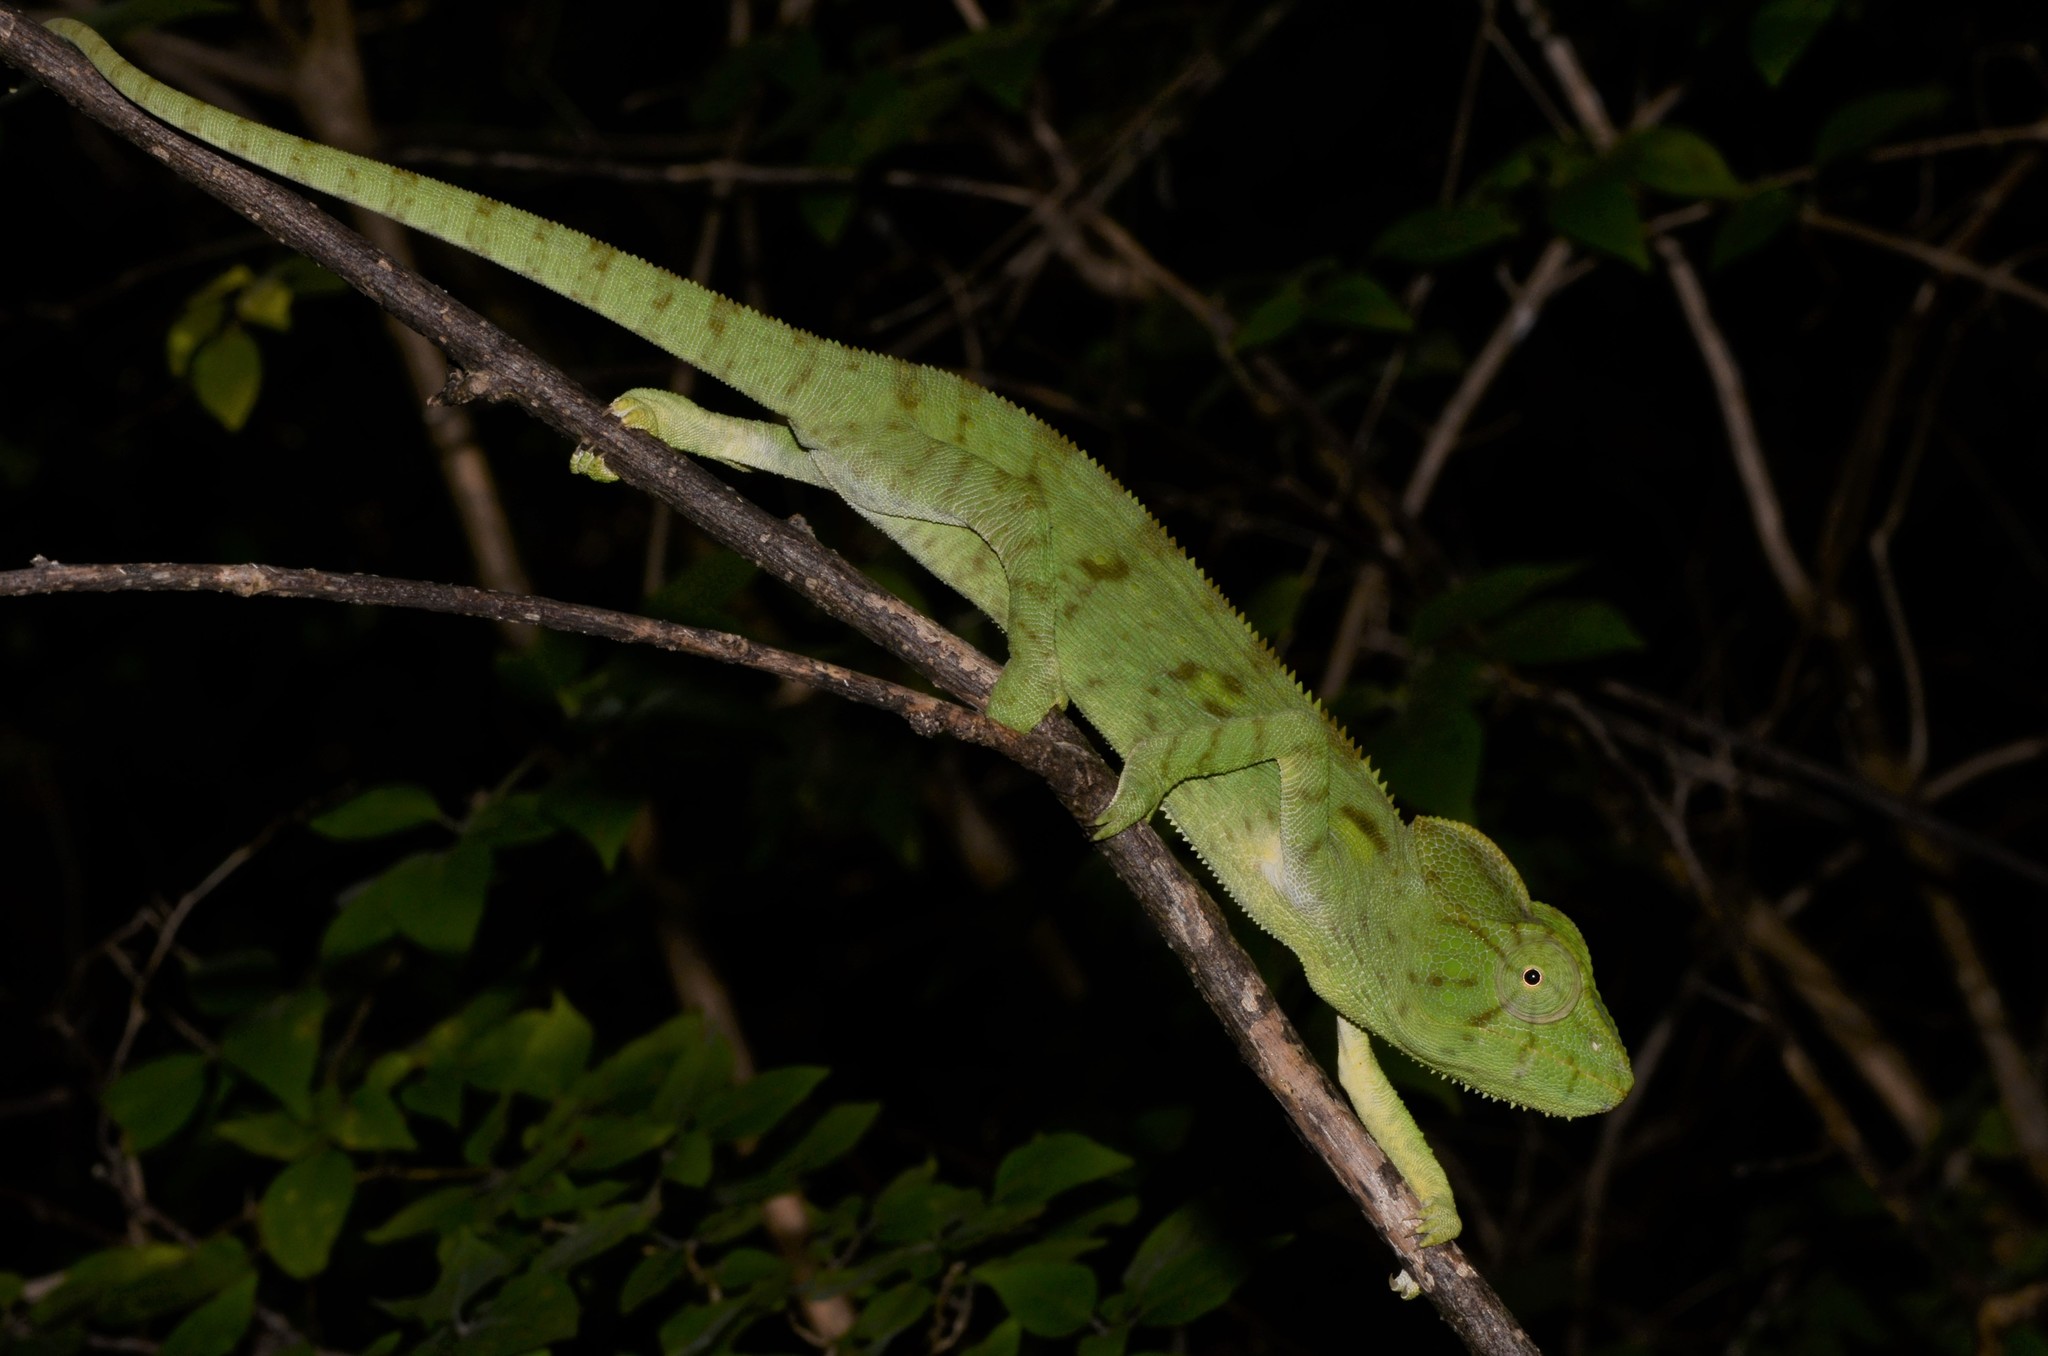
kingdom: Animalia
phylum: Chordata
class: Squamata
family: Chamaeleonidae
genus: Furcifer
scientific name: Furcifer oustaleti
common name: Oustalet's chameleon
